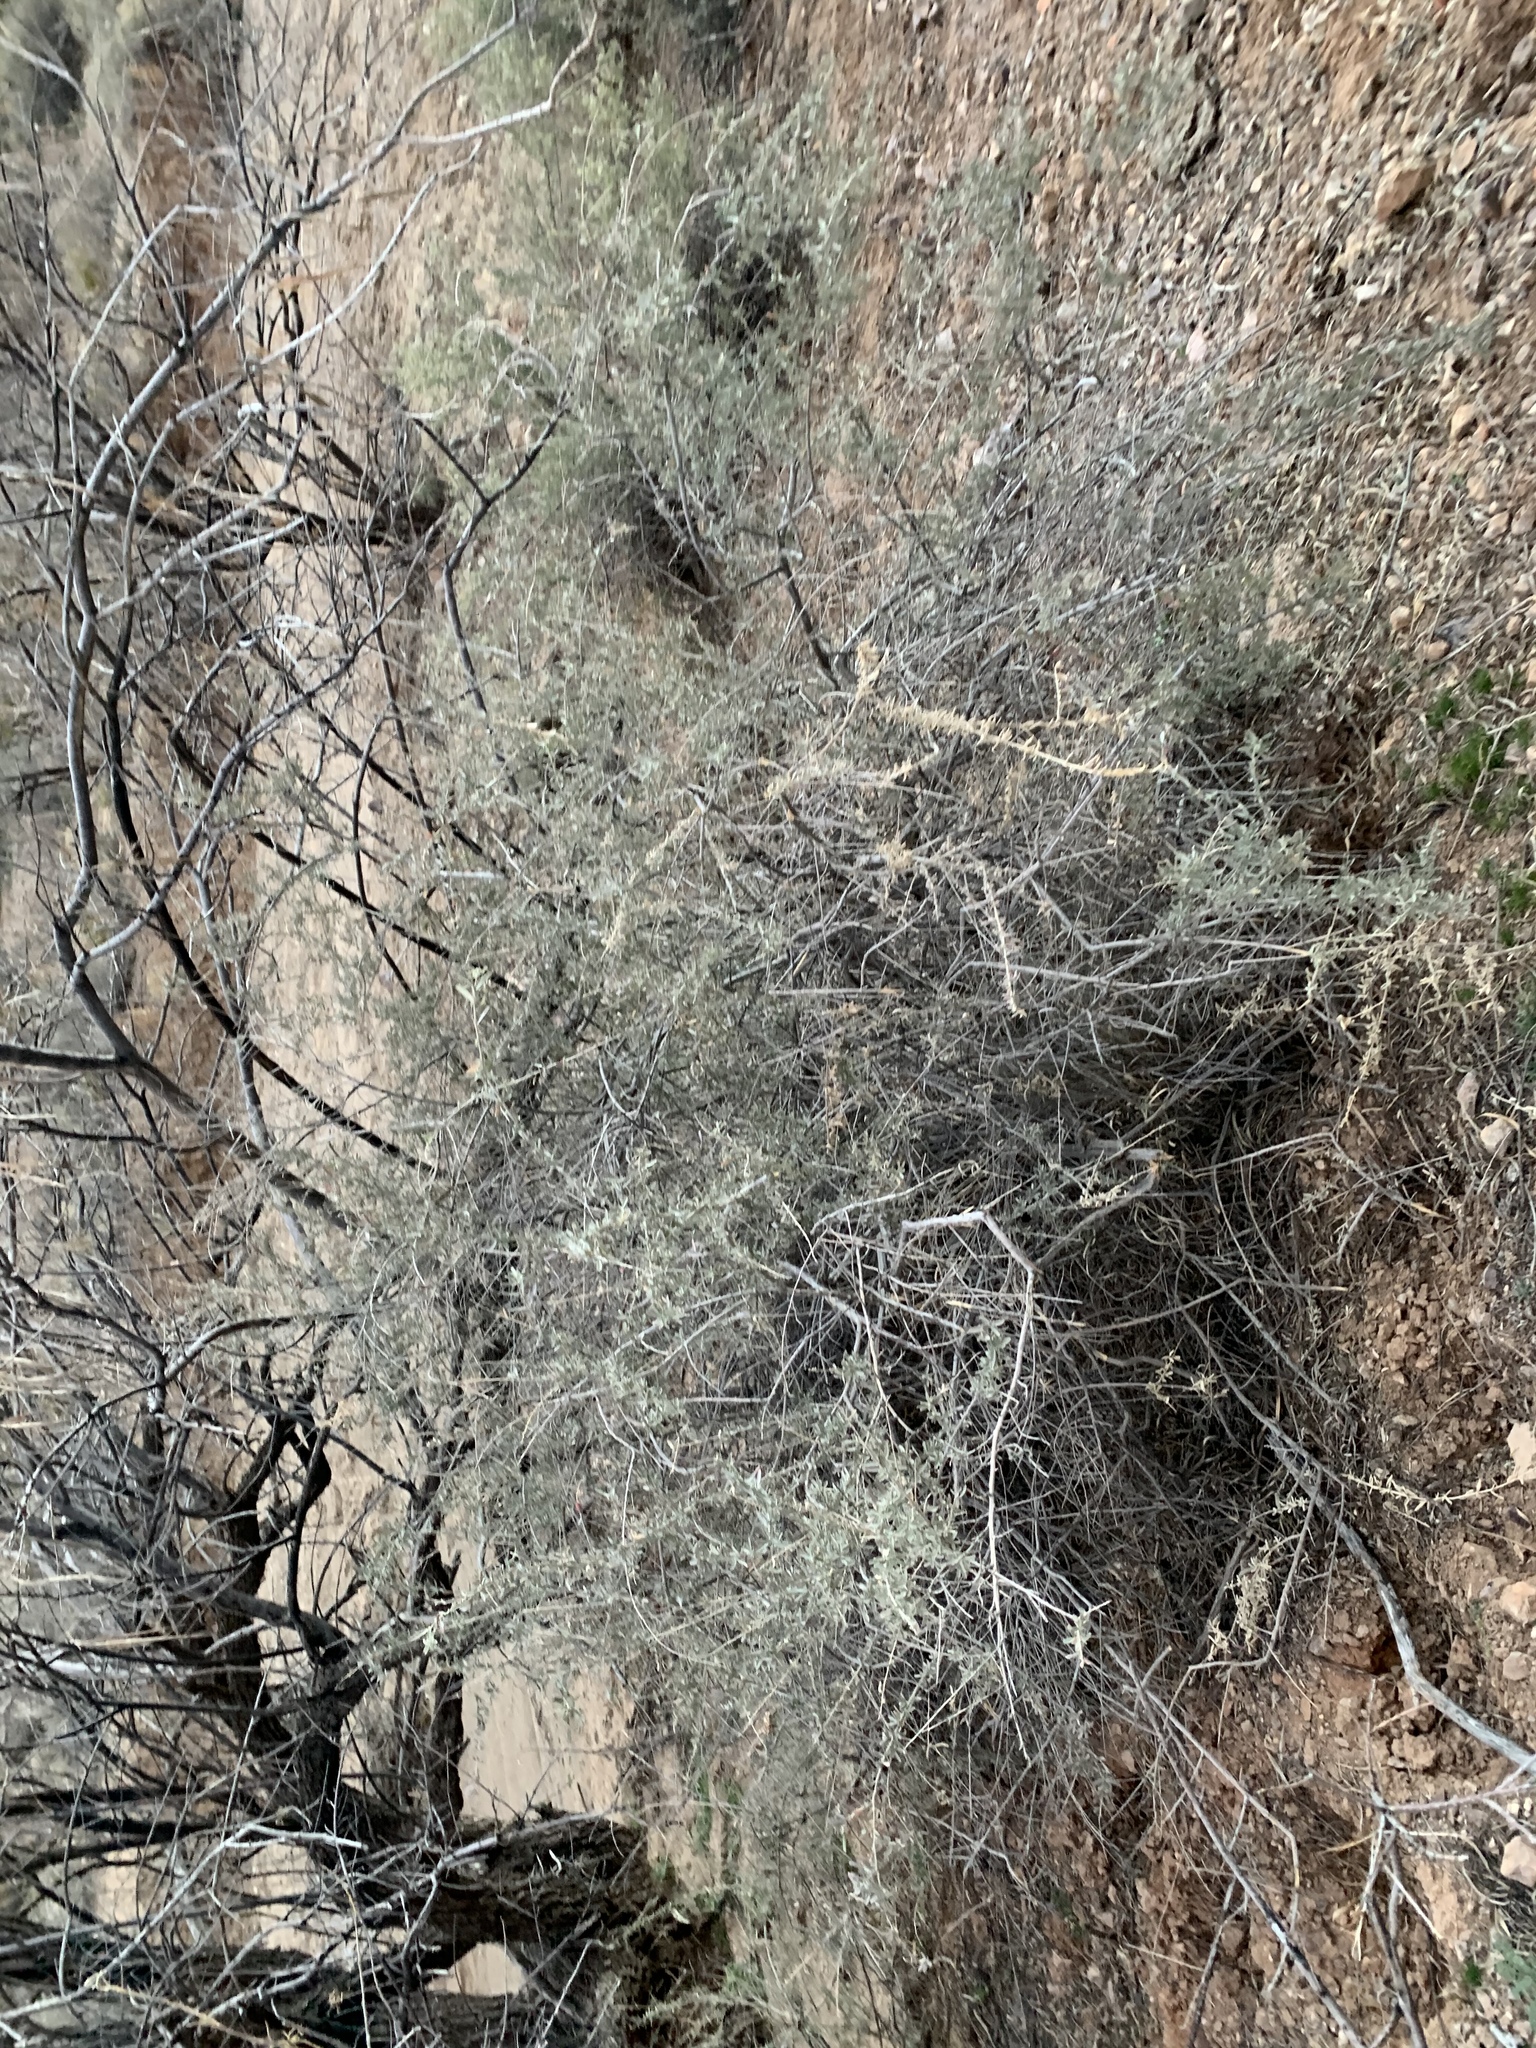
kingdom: Plantae
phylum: Tracheophyta
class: Magnoliopsida
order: Caryophyllales
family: Amaranthaceae
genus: Atriplex
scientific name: Atriplex canescens
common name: Four-wing saltbush
